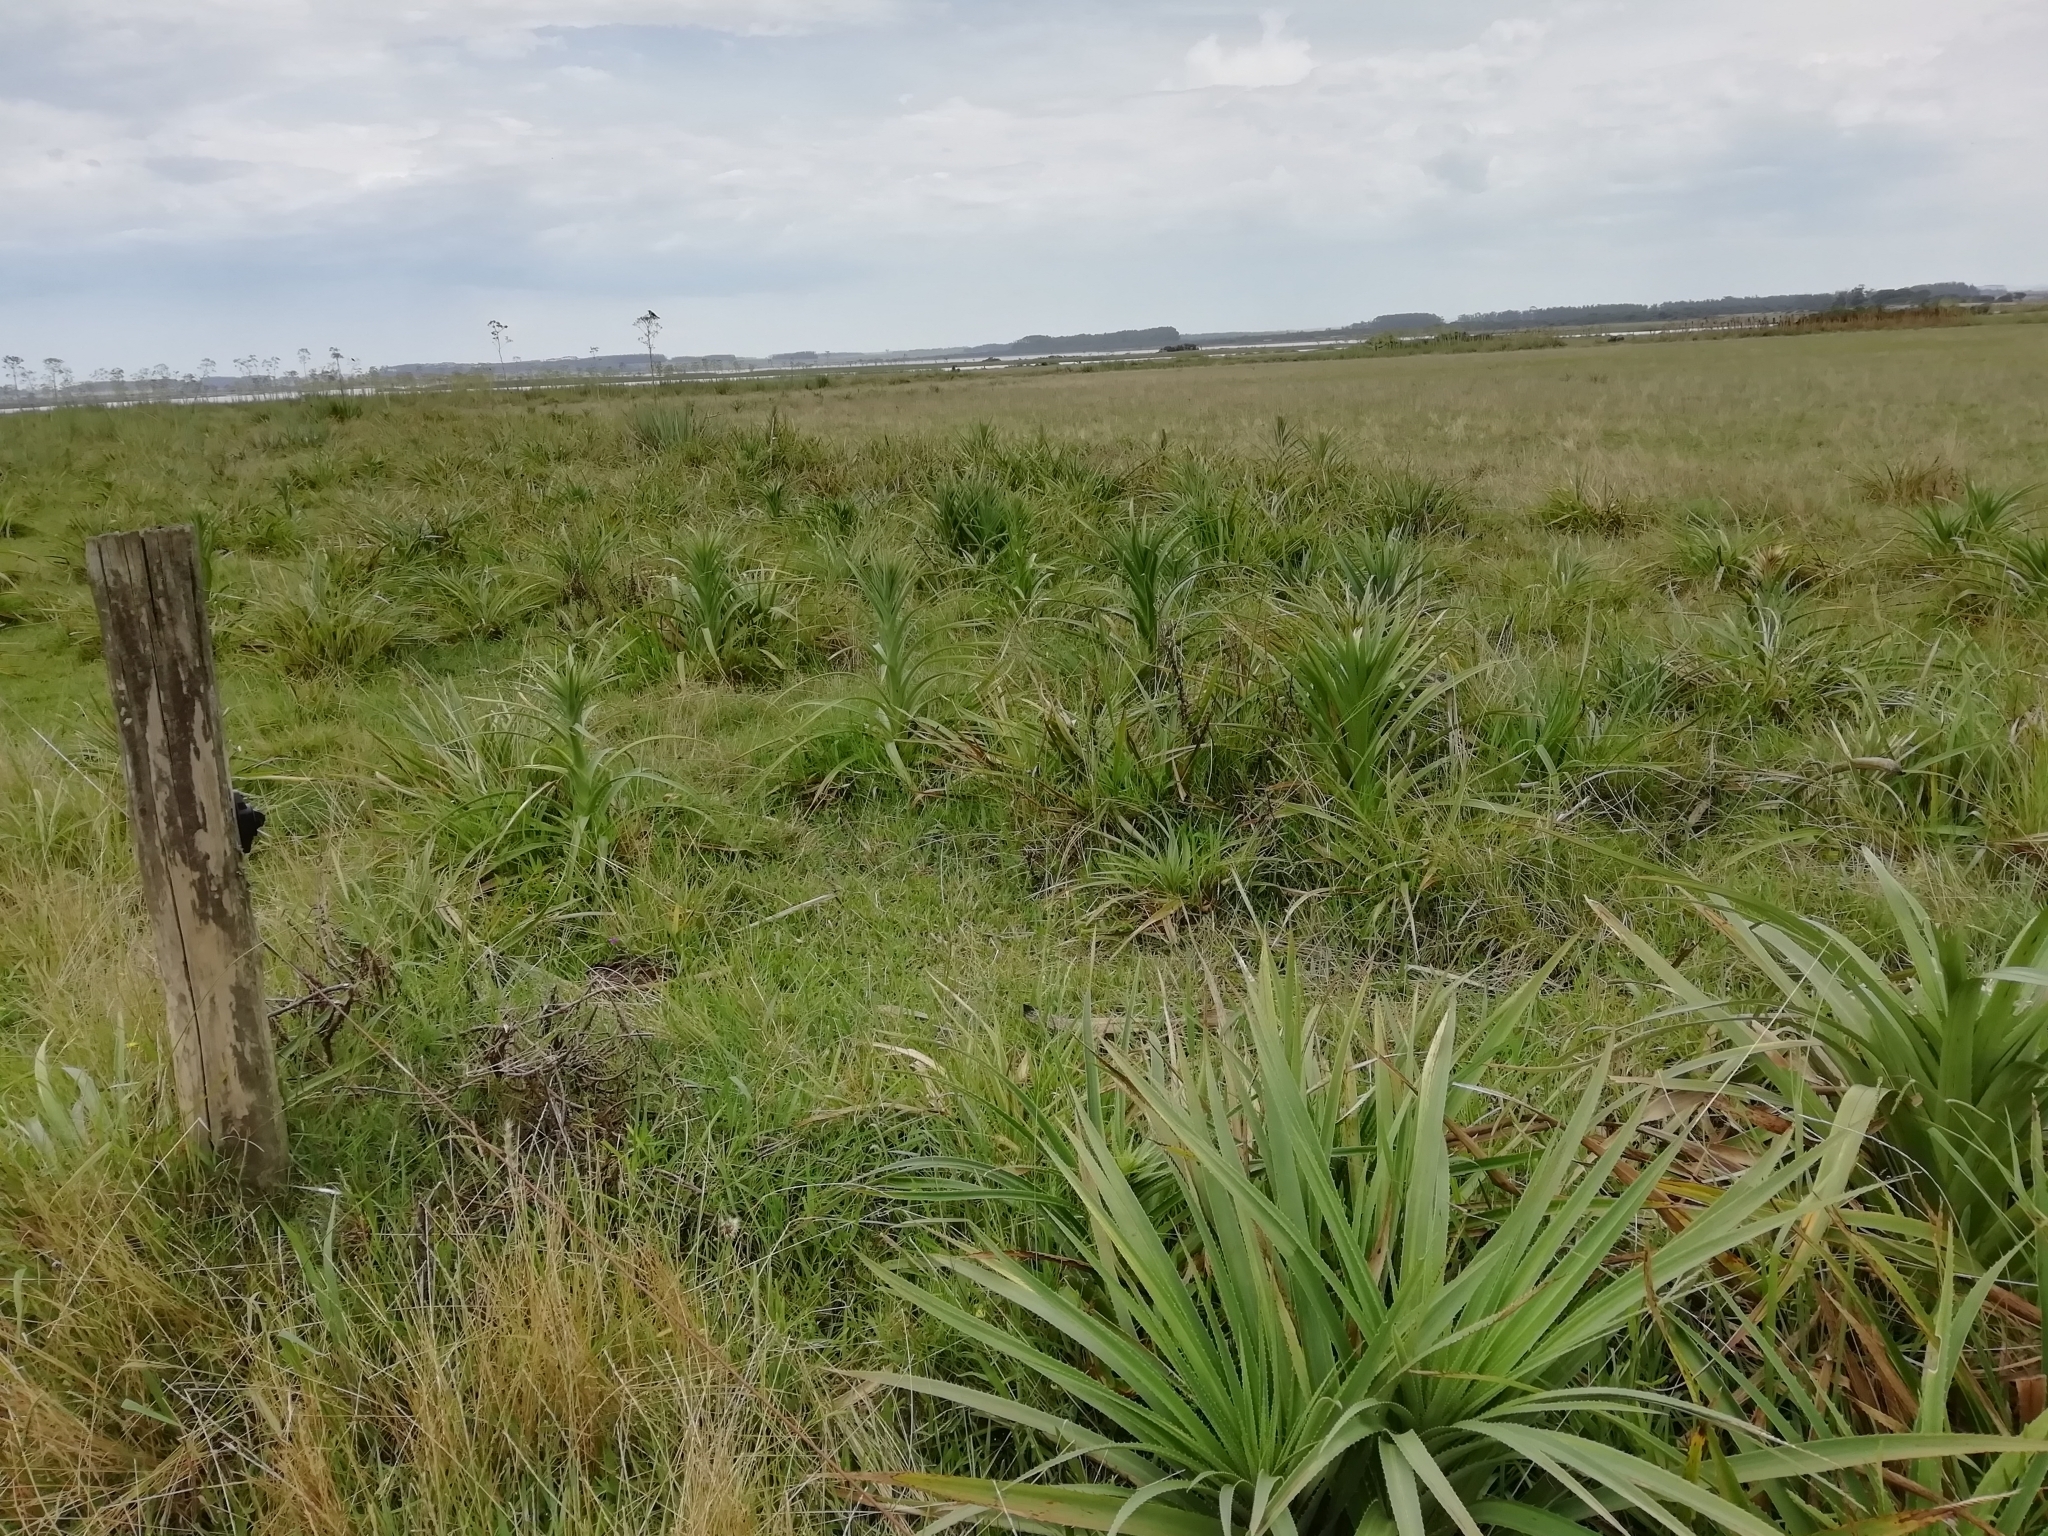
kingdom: Plantae
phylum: Tracheophyta
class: Magnoliopsida
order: Apiales
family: Apiaceae
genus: Eryngium
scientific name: Eryngium eburneum
